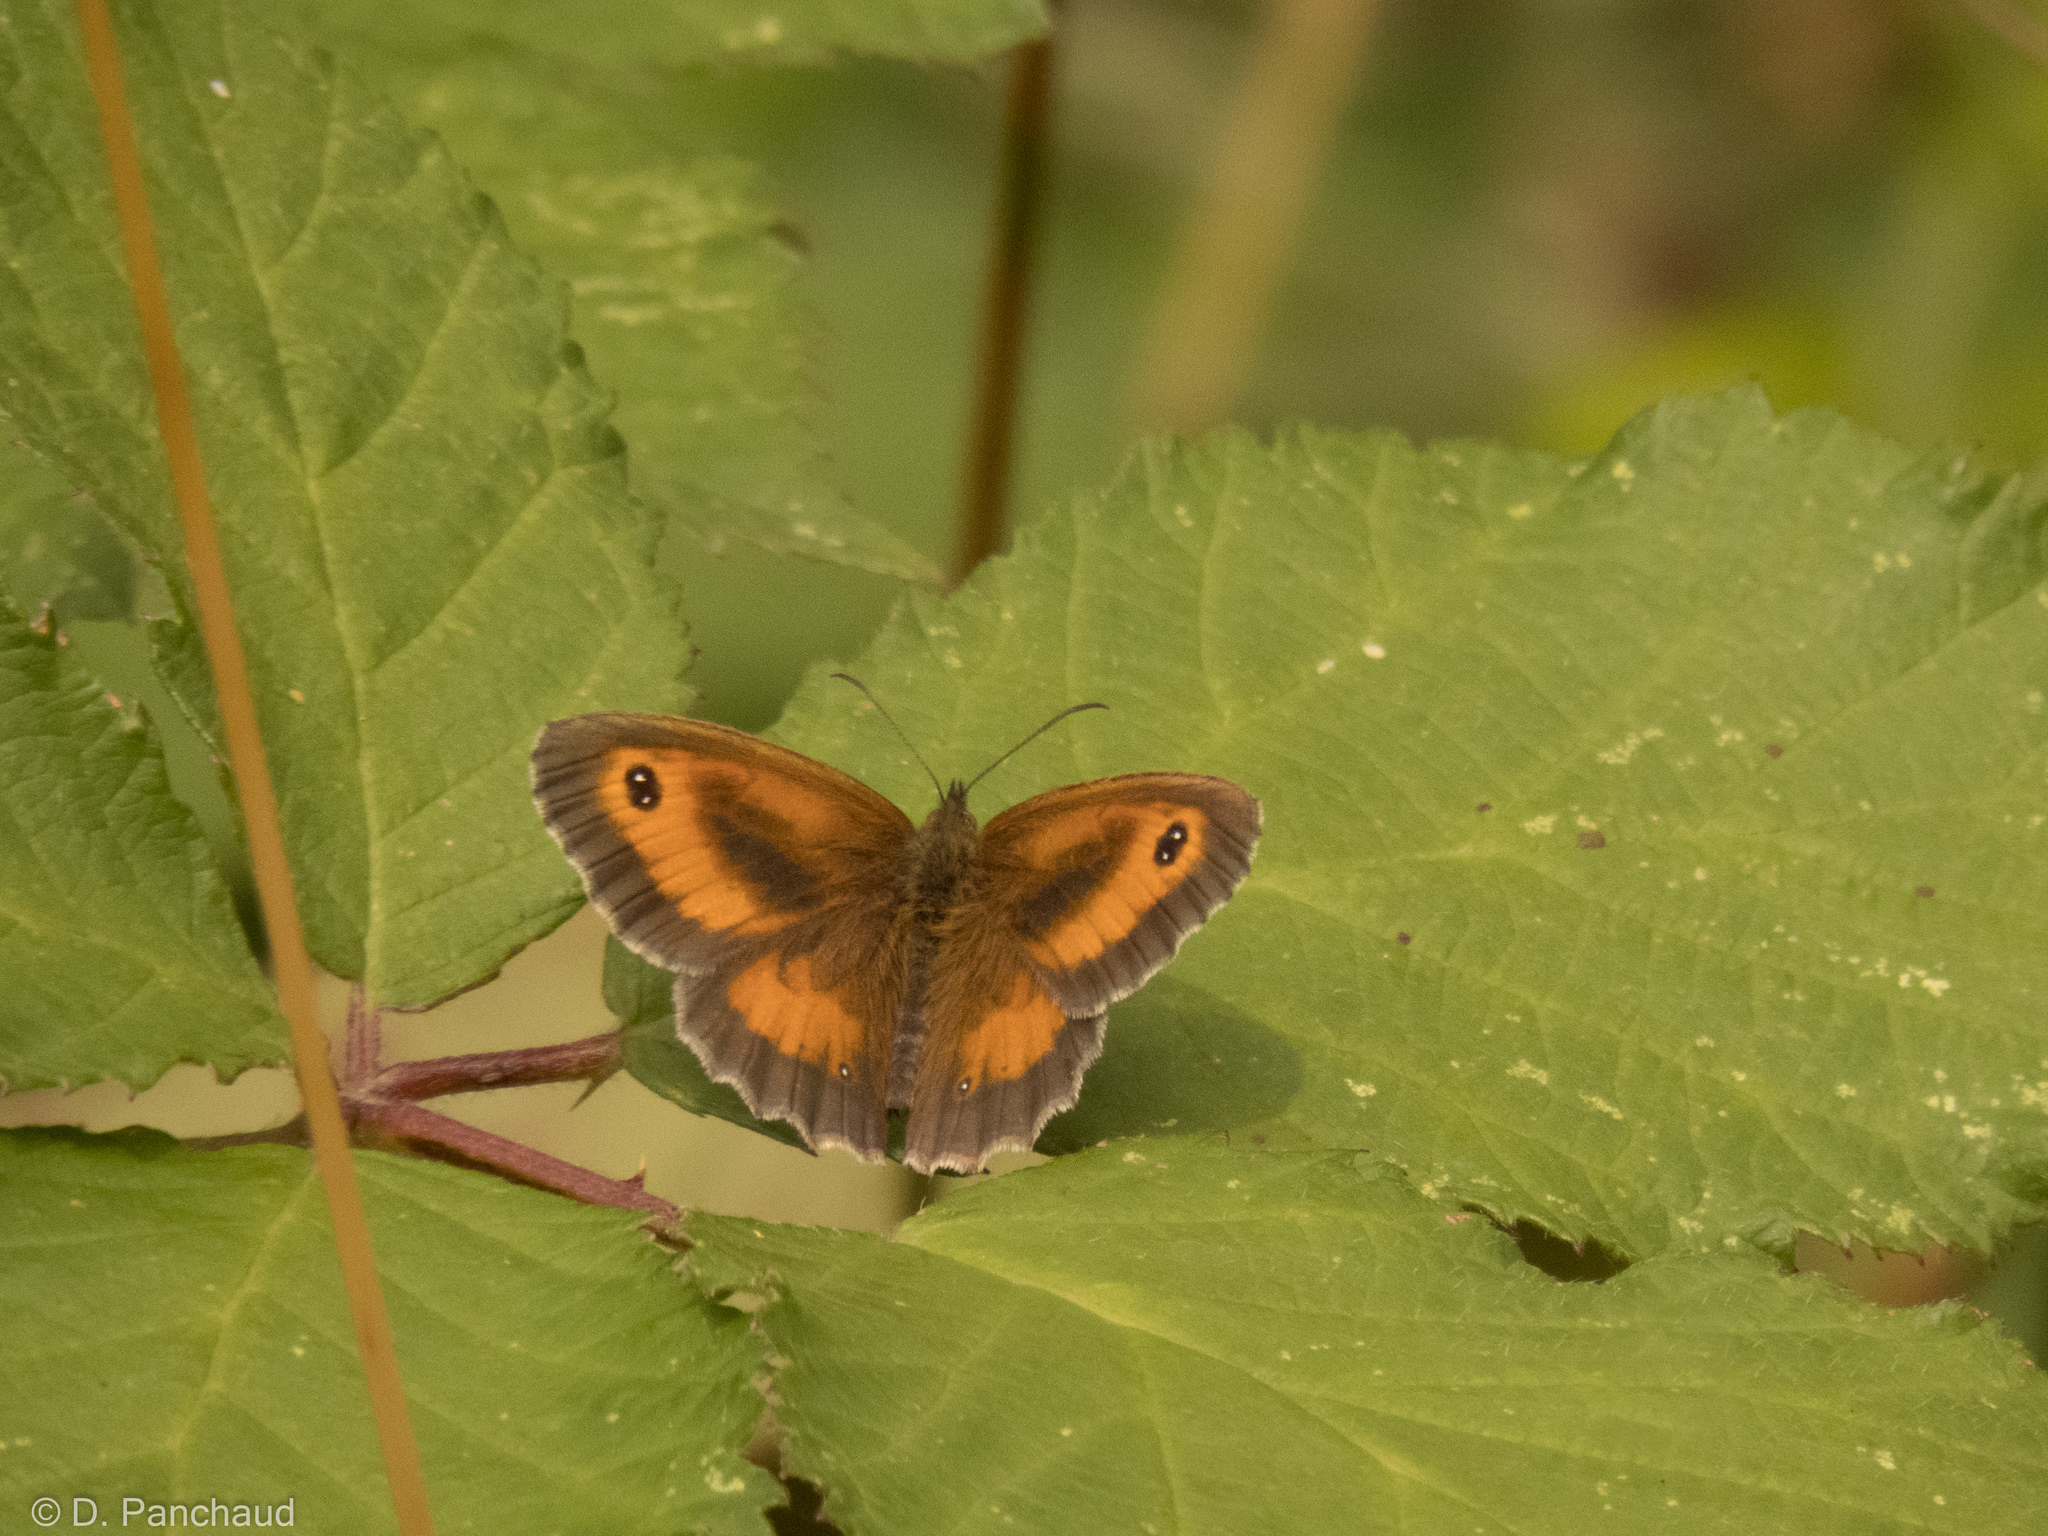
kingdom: Animalia
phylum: Arthropoda
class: Insecta
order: Lepidoptera
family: Nymphalidae
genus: Pyronia
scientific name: Pyronia tithonus
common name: Gatekeeper
